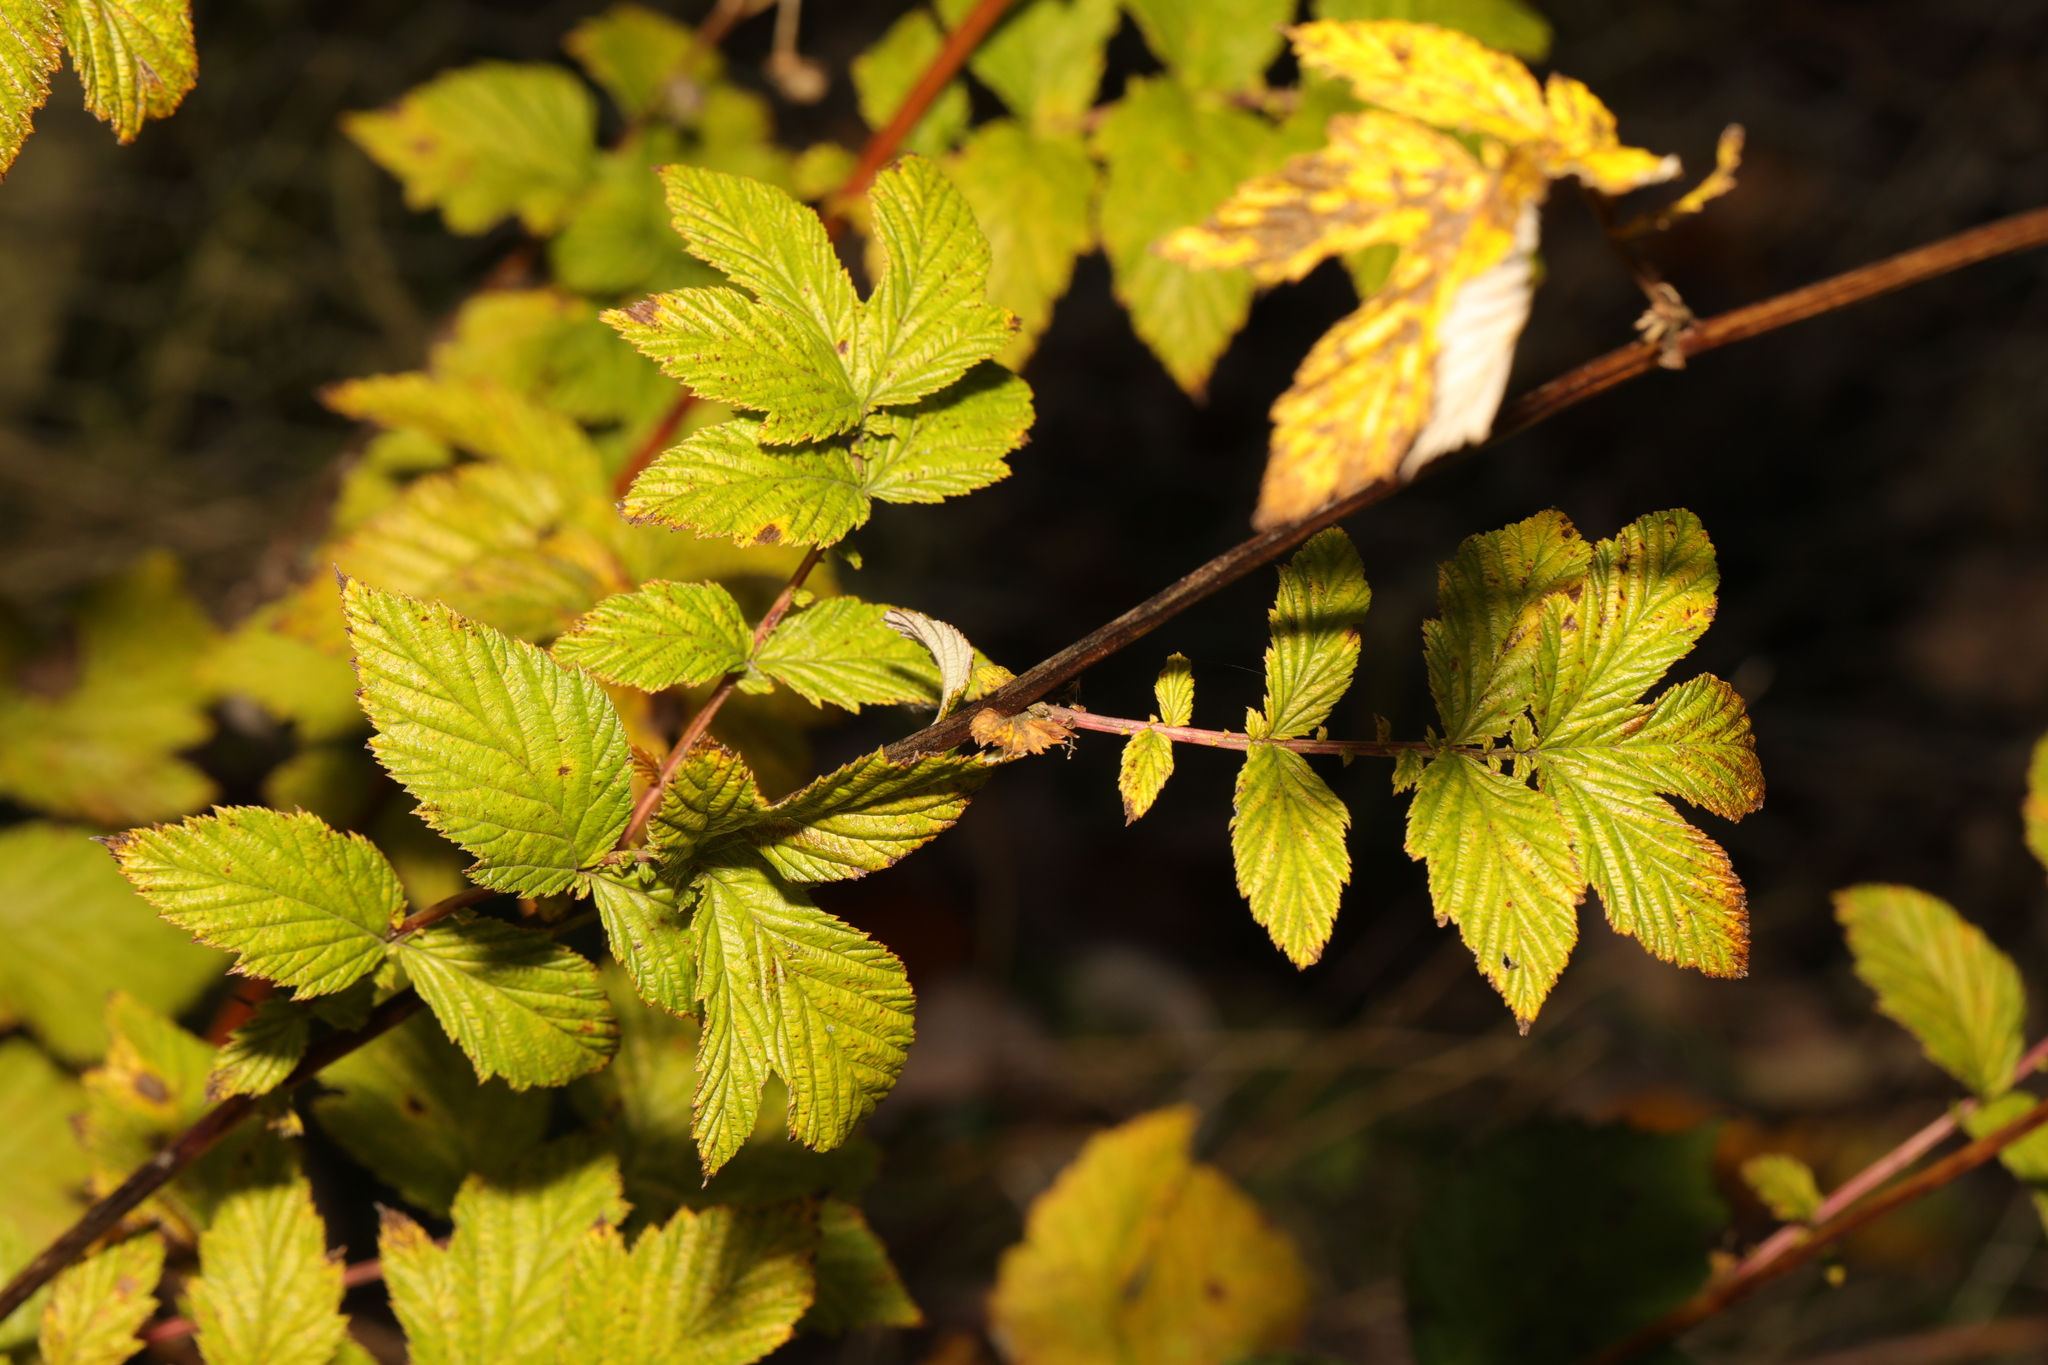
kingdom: Plantae
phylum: Tracheophyta
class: Magnoliopsida
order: Rosales
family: Rosaceae
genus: Filipendula
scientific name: Filipendula ulmaria
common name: Meadowsweet
